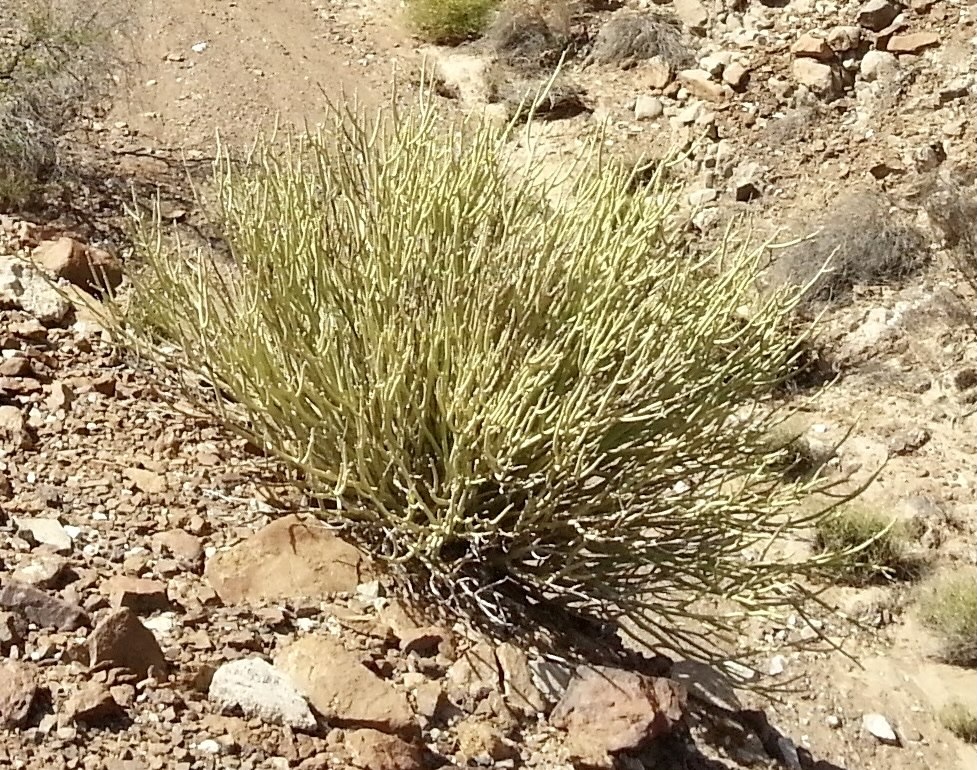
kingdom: Plantae
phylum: Tracheophyta
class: Magnoliopsida
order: Malpighiales
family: Euphorbiaceae
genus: Euphorbia
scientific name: Euphorbia larica
